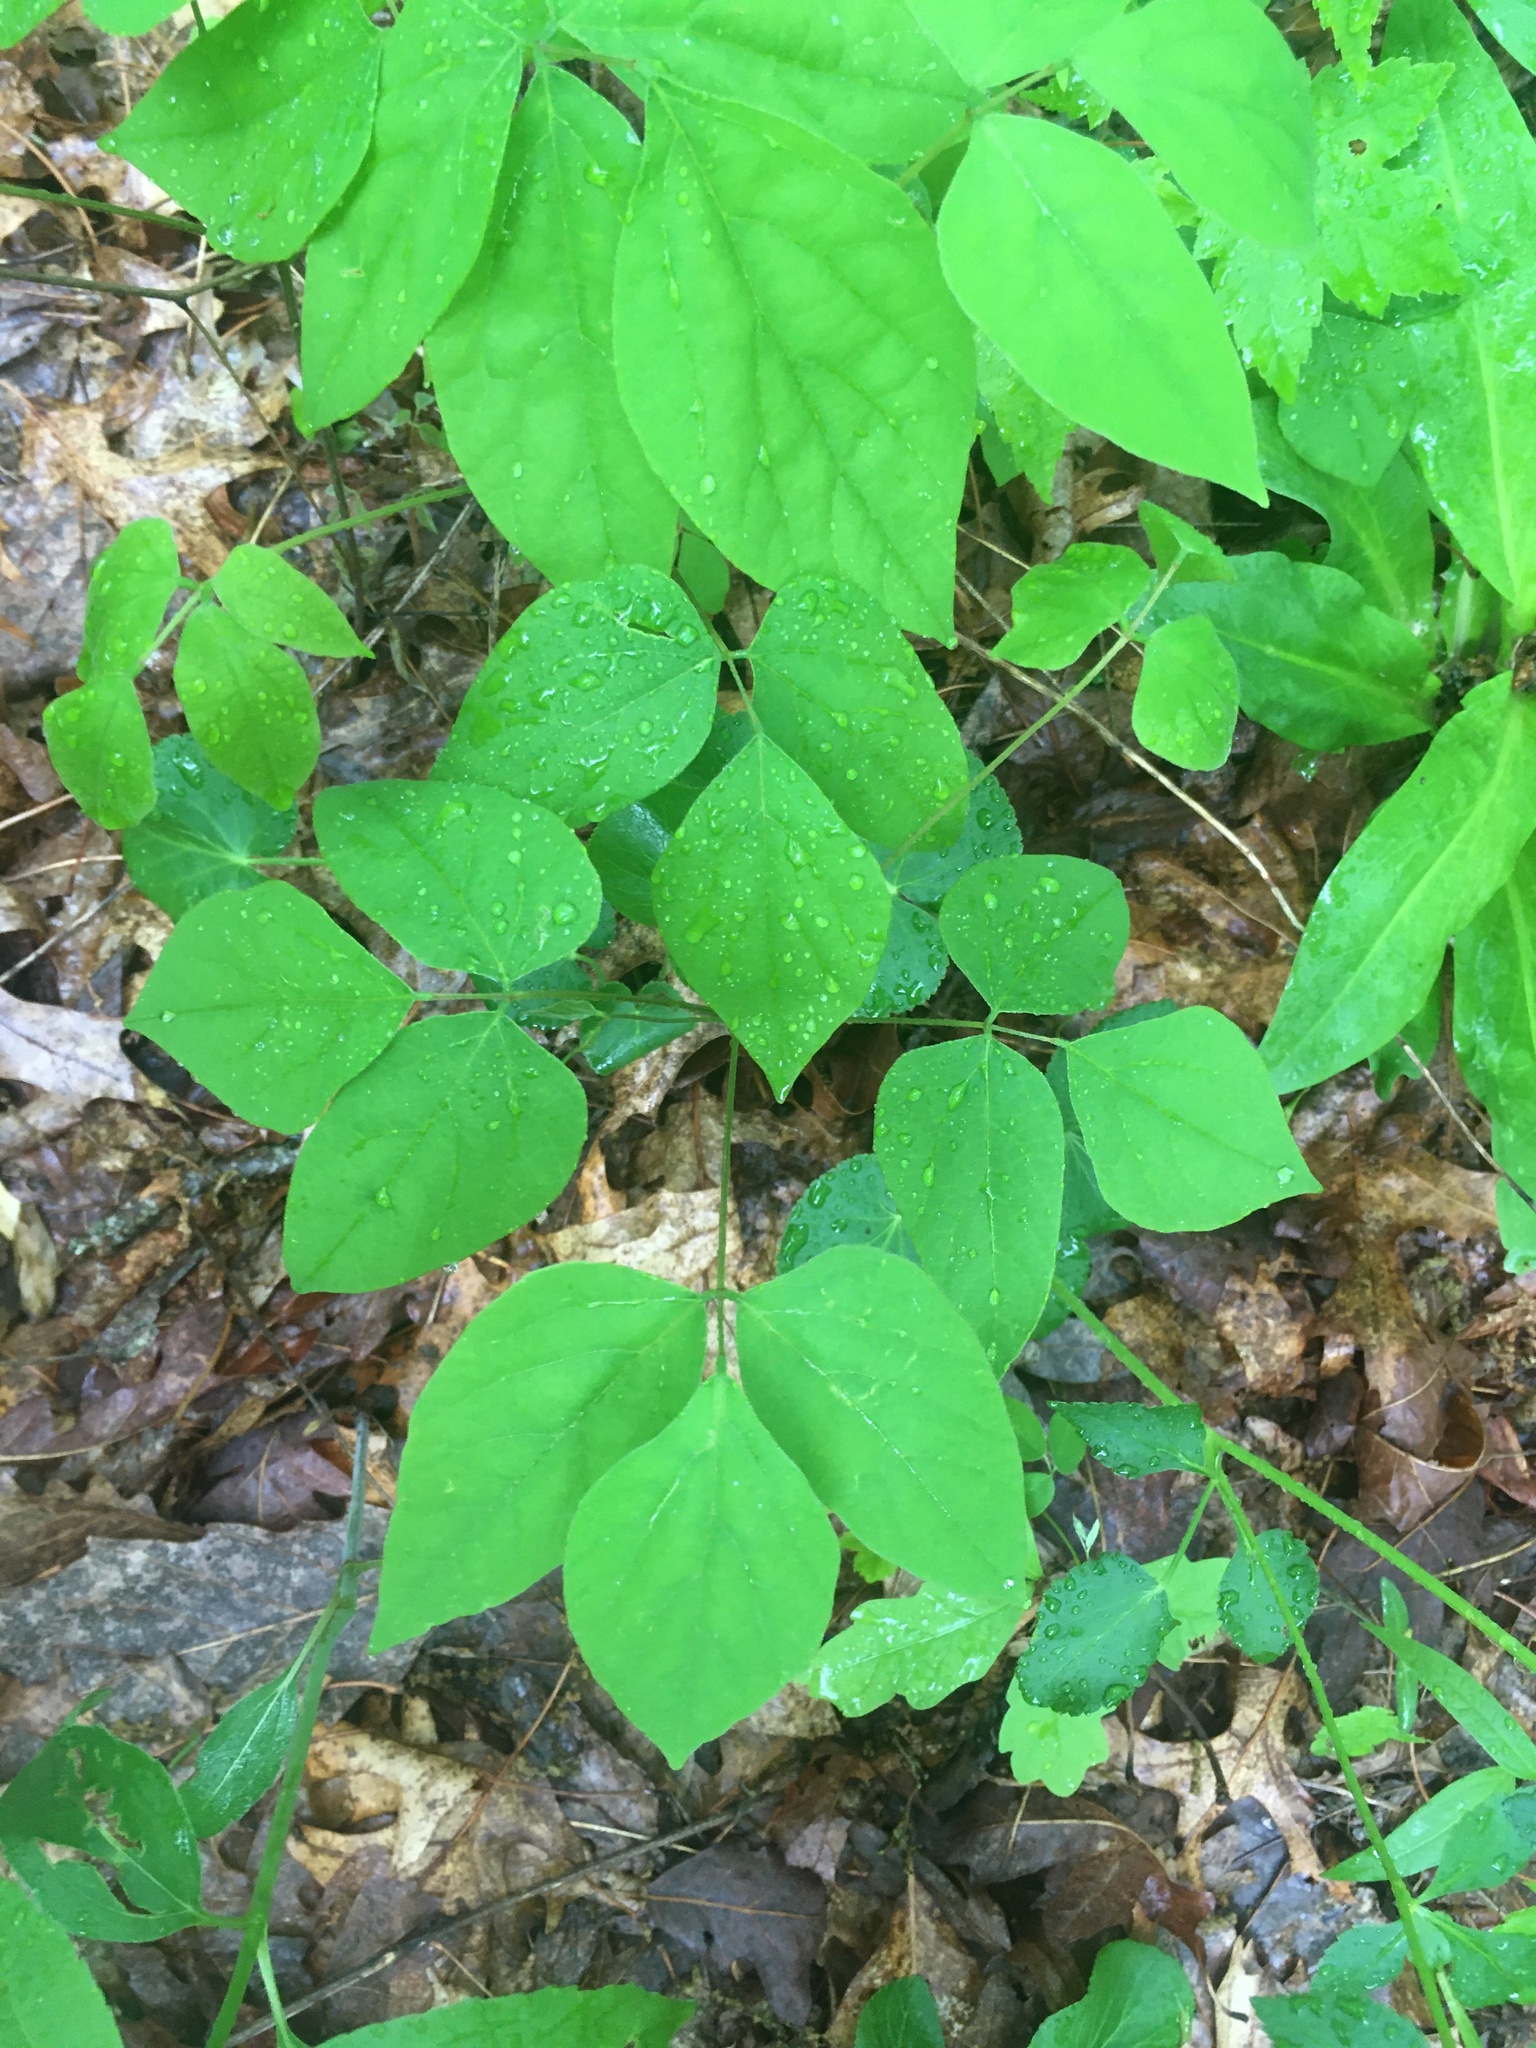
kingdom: Plantae
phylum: Tracheophyta
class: Magnoliopsida
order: Fabales
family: Fabaceae
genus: Hylodesmum
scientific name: Hylodesmum nudiflorum
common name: Bare-stemmed tick-trefoil
